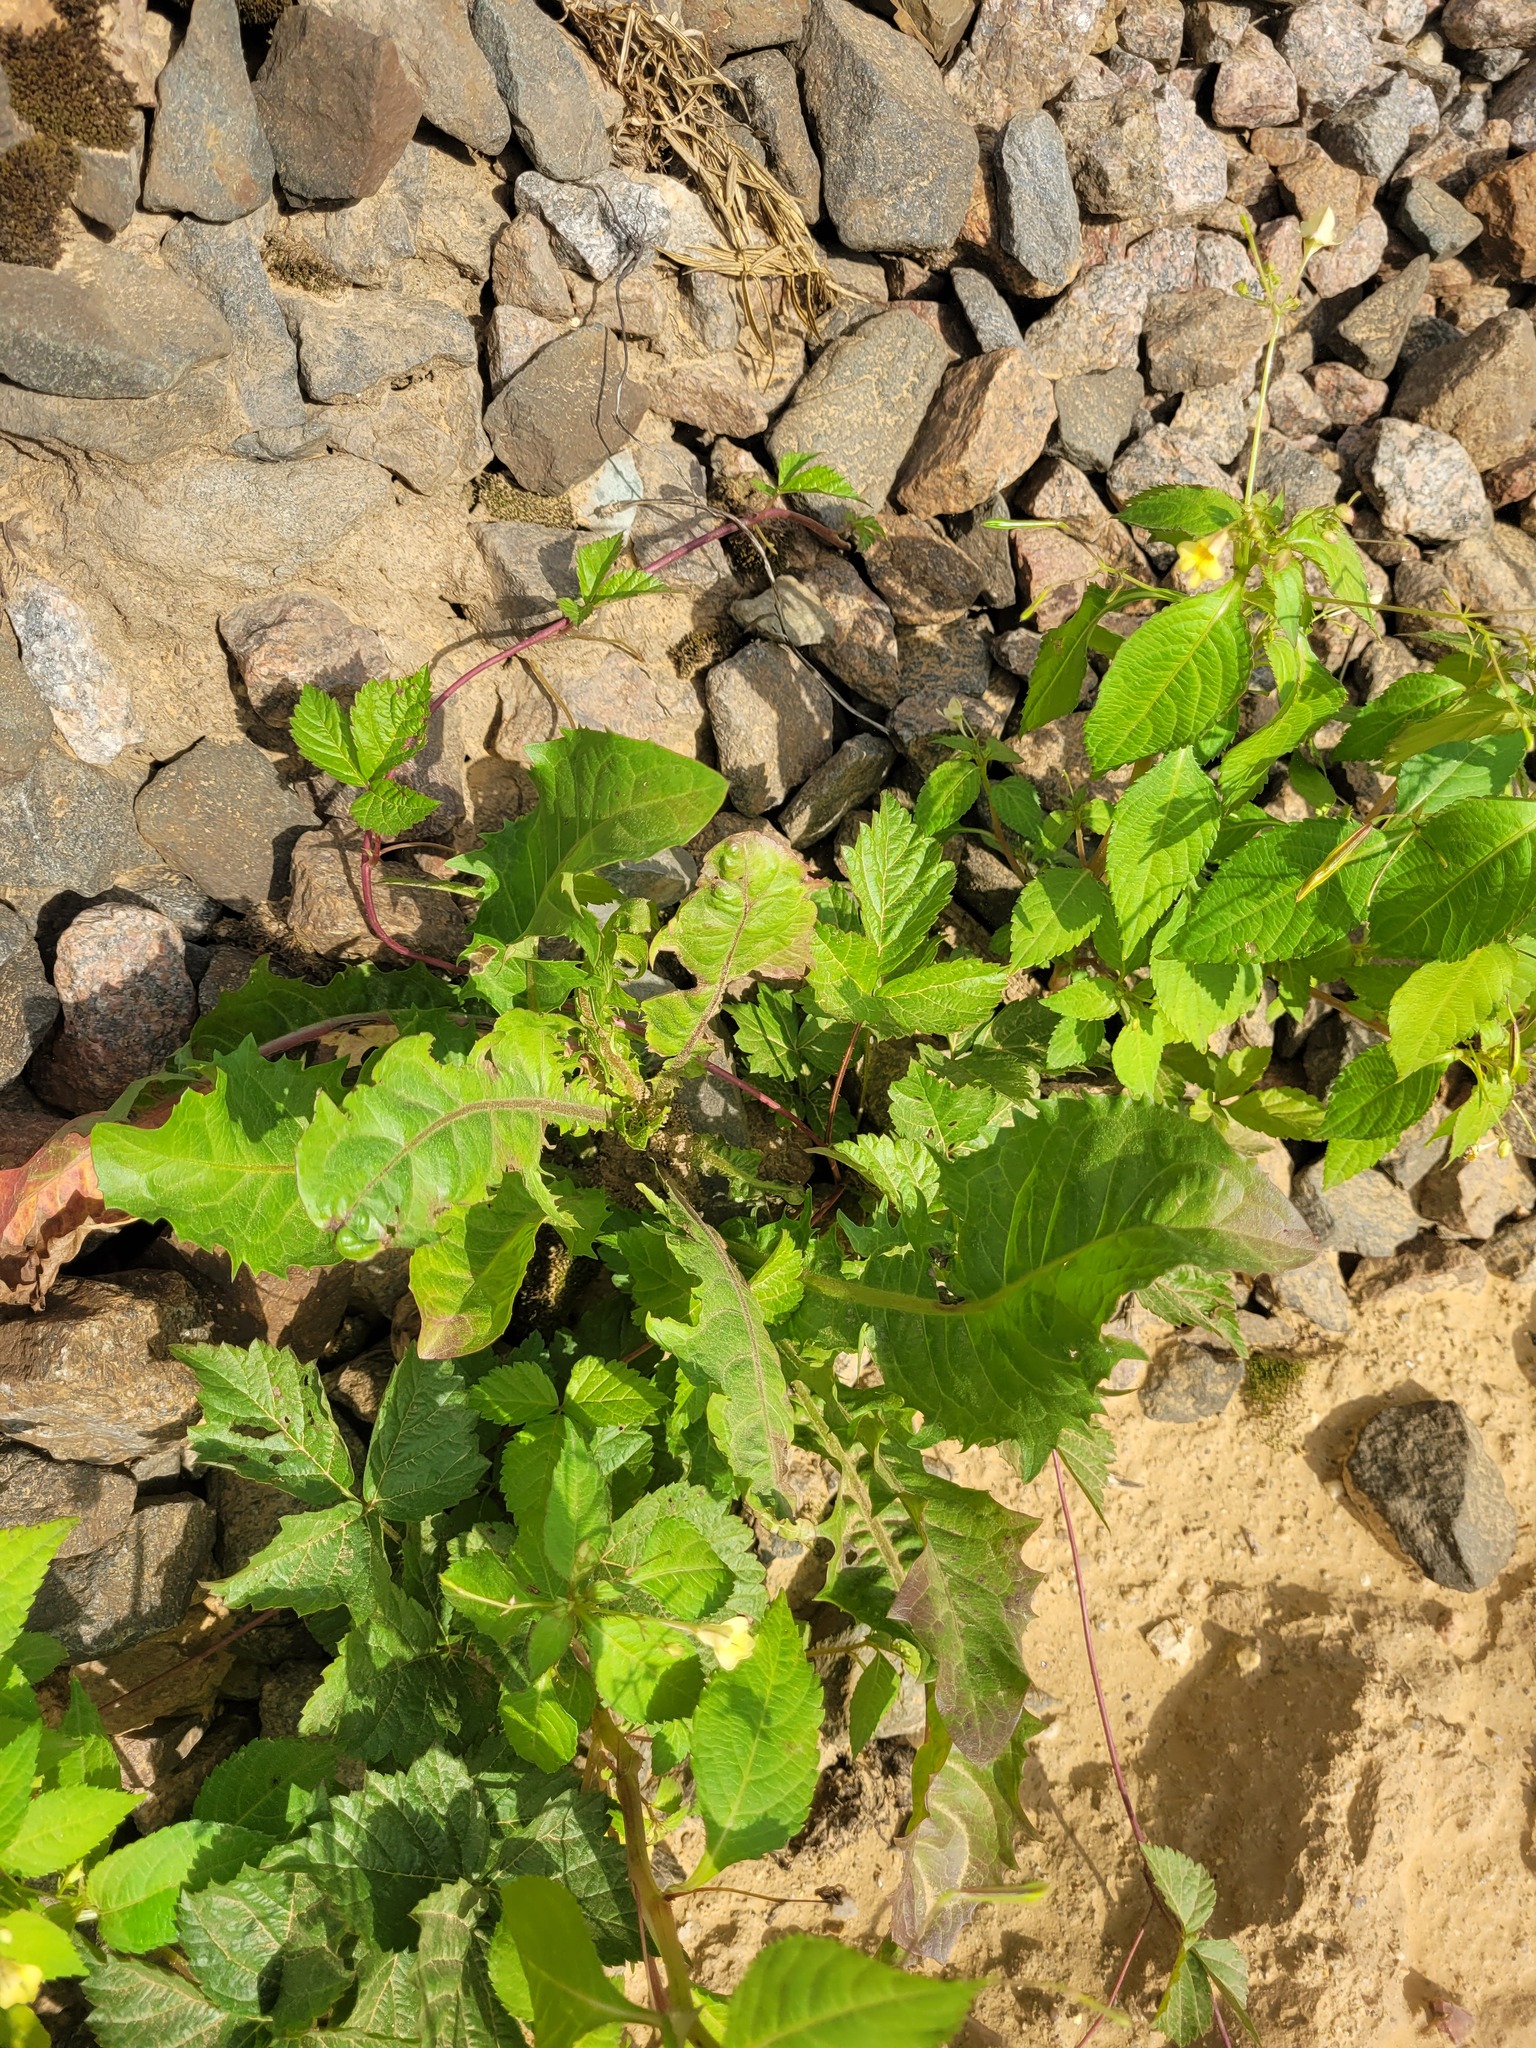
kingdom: Plantae
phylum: Tracheophyta
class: Magnoliopsida
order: Asterales
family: Asteraceae
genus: Taraxacum
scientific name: Taraxacum officinale
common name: Common dandelion
